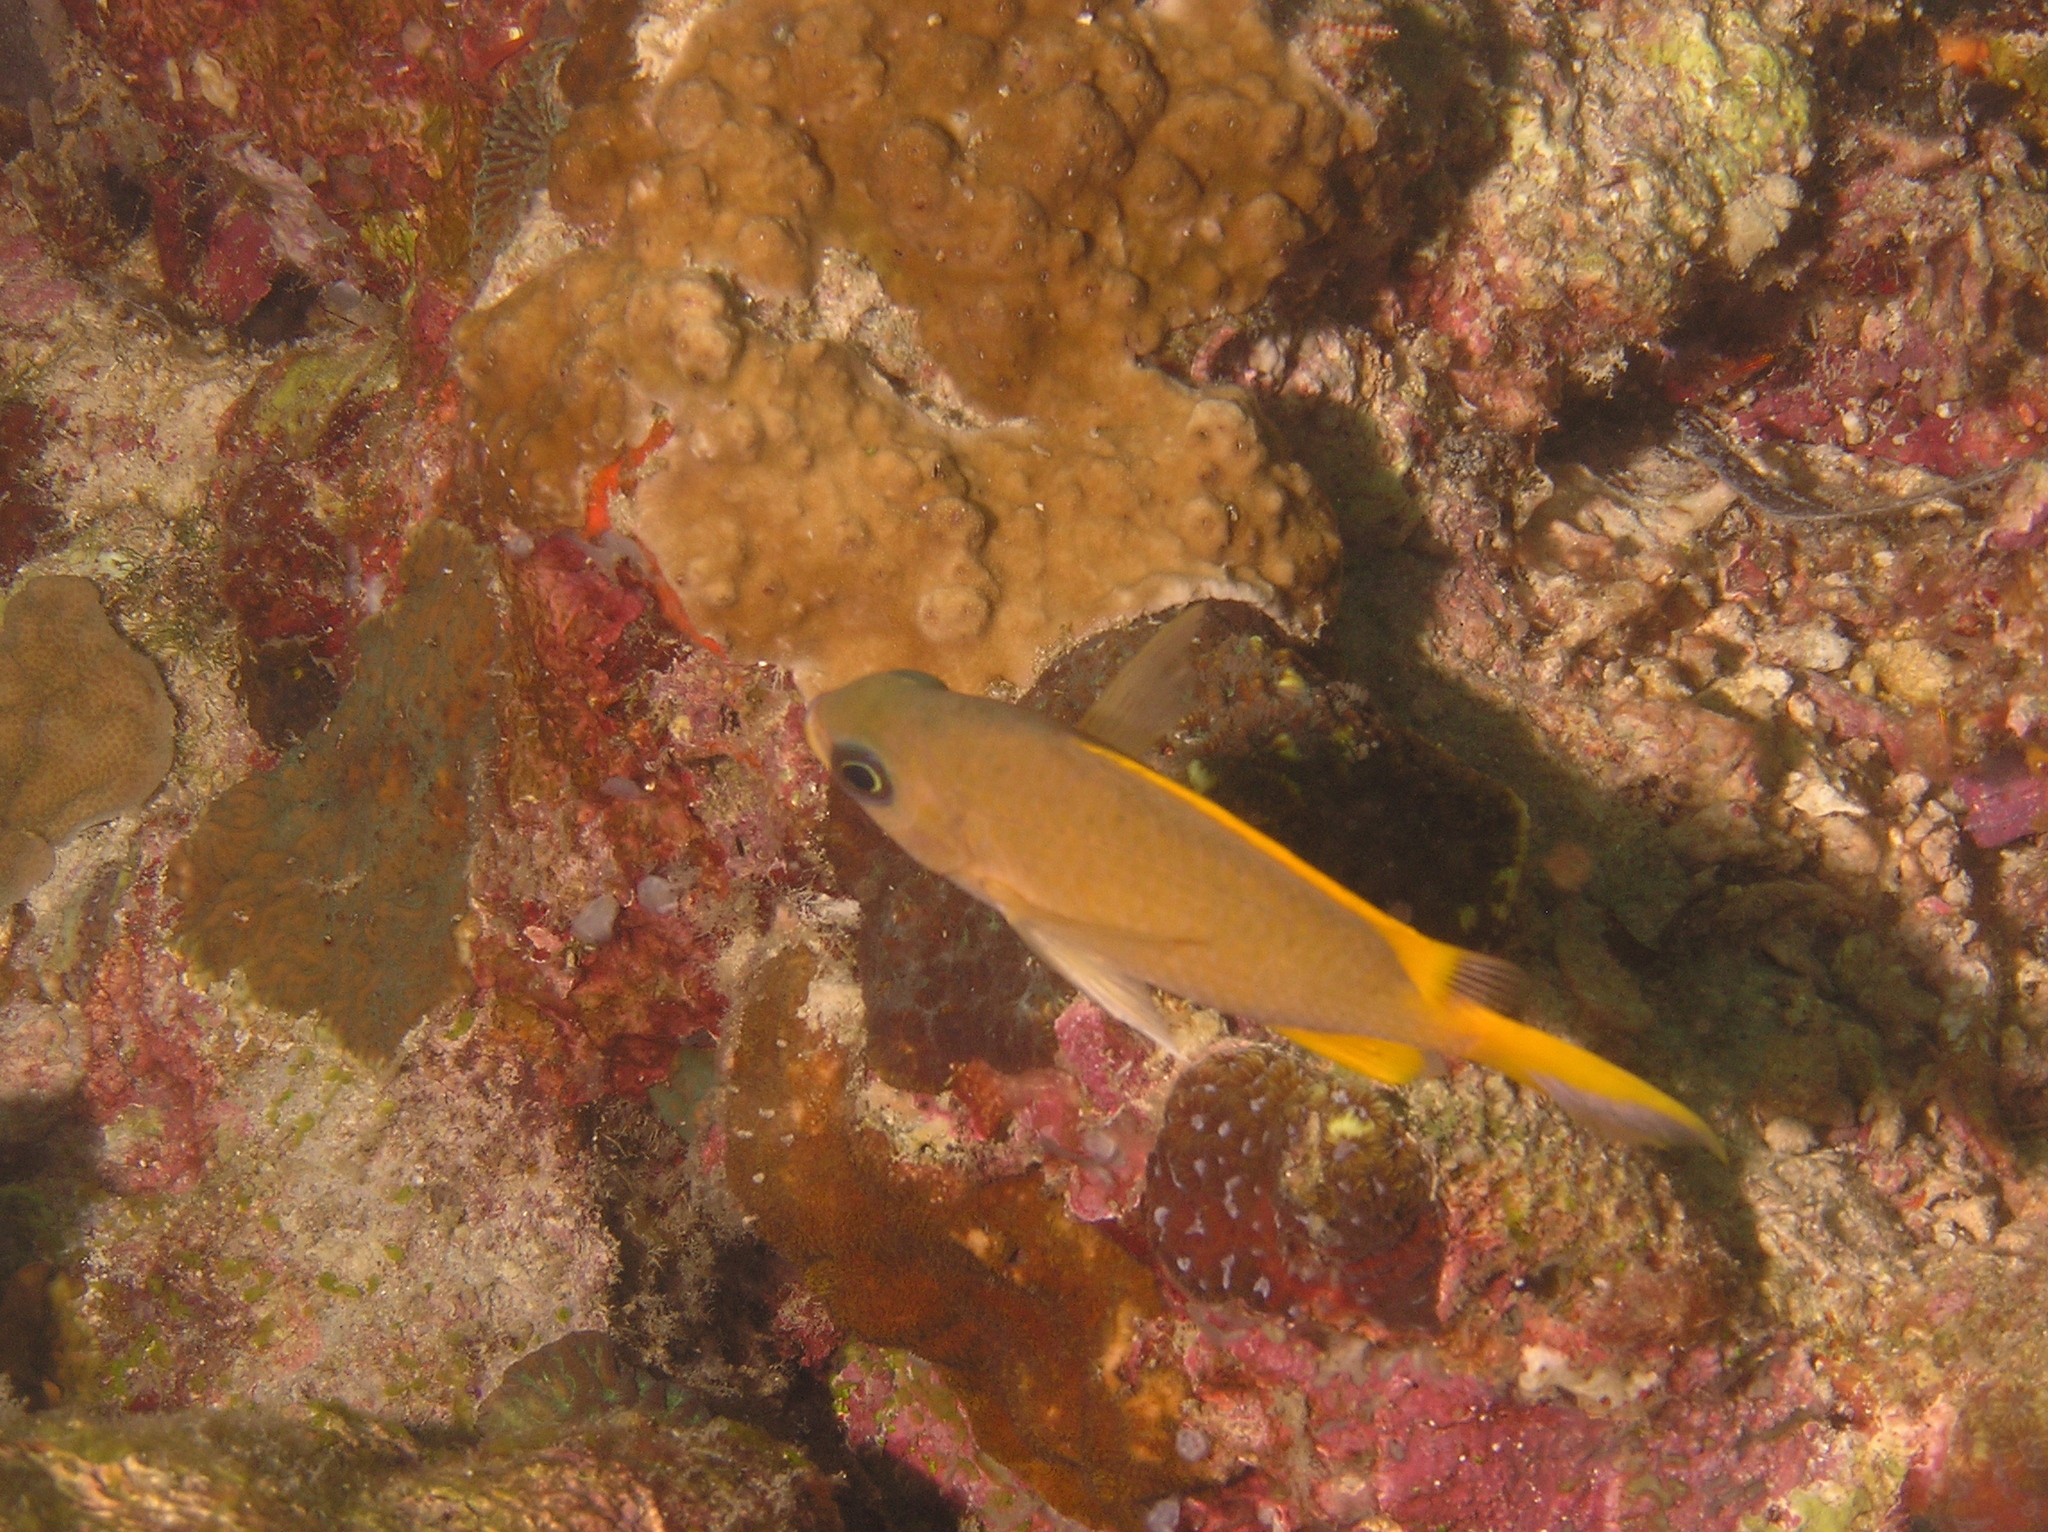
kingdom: Animalia
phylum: Chordata
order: Perciformes
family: Pomacentridae
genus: Chromis
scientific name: Chromis analis
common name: Yellow chromis
